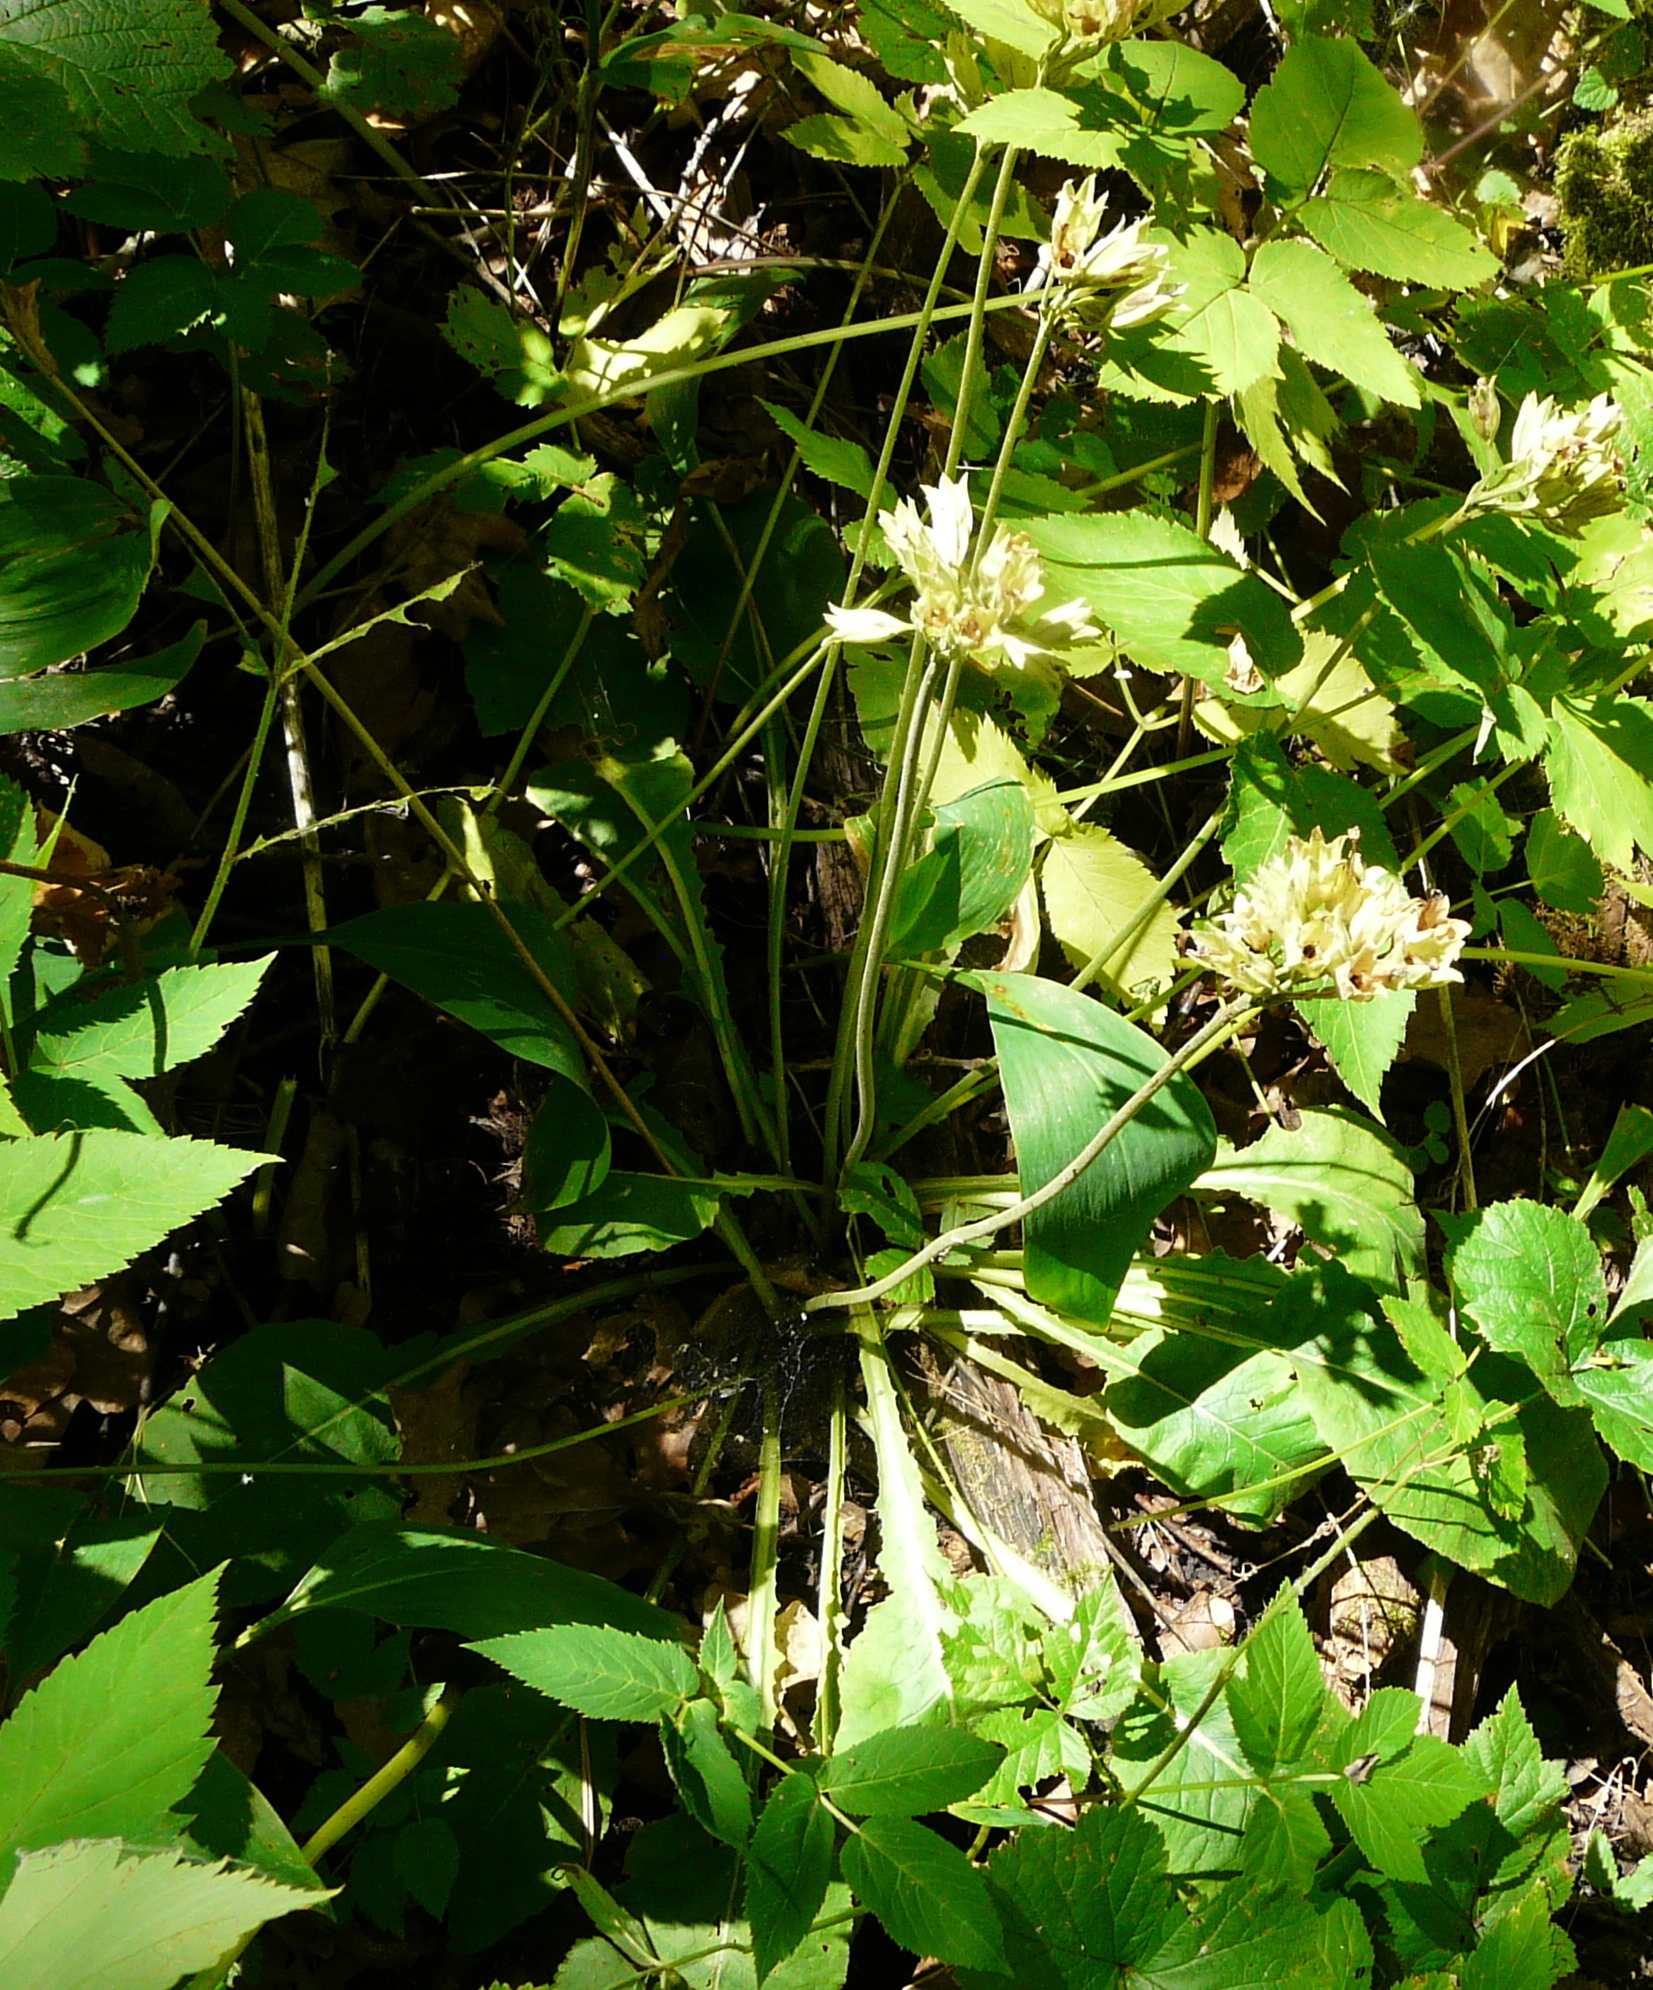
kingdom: Plantae
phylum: Tracheophyta
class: Magnoliopsida
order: Ericales
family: Primulaceae
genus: Primula
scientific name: Primula veris
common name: Cowslip
